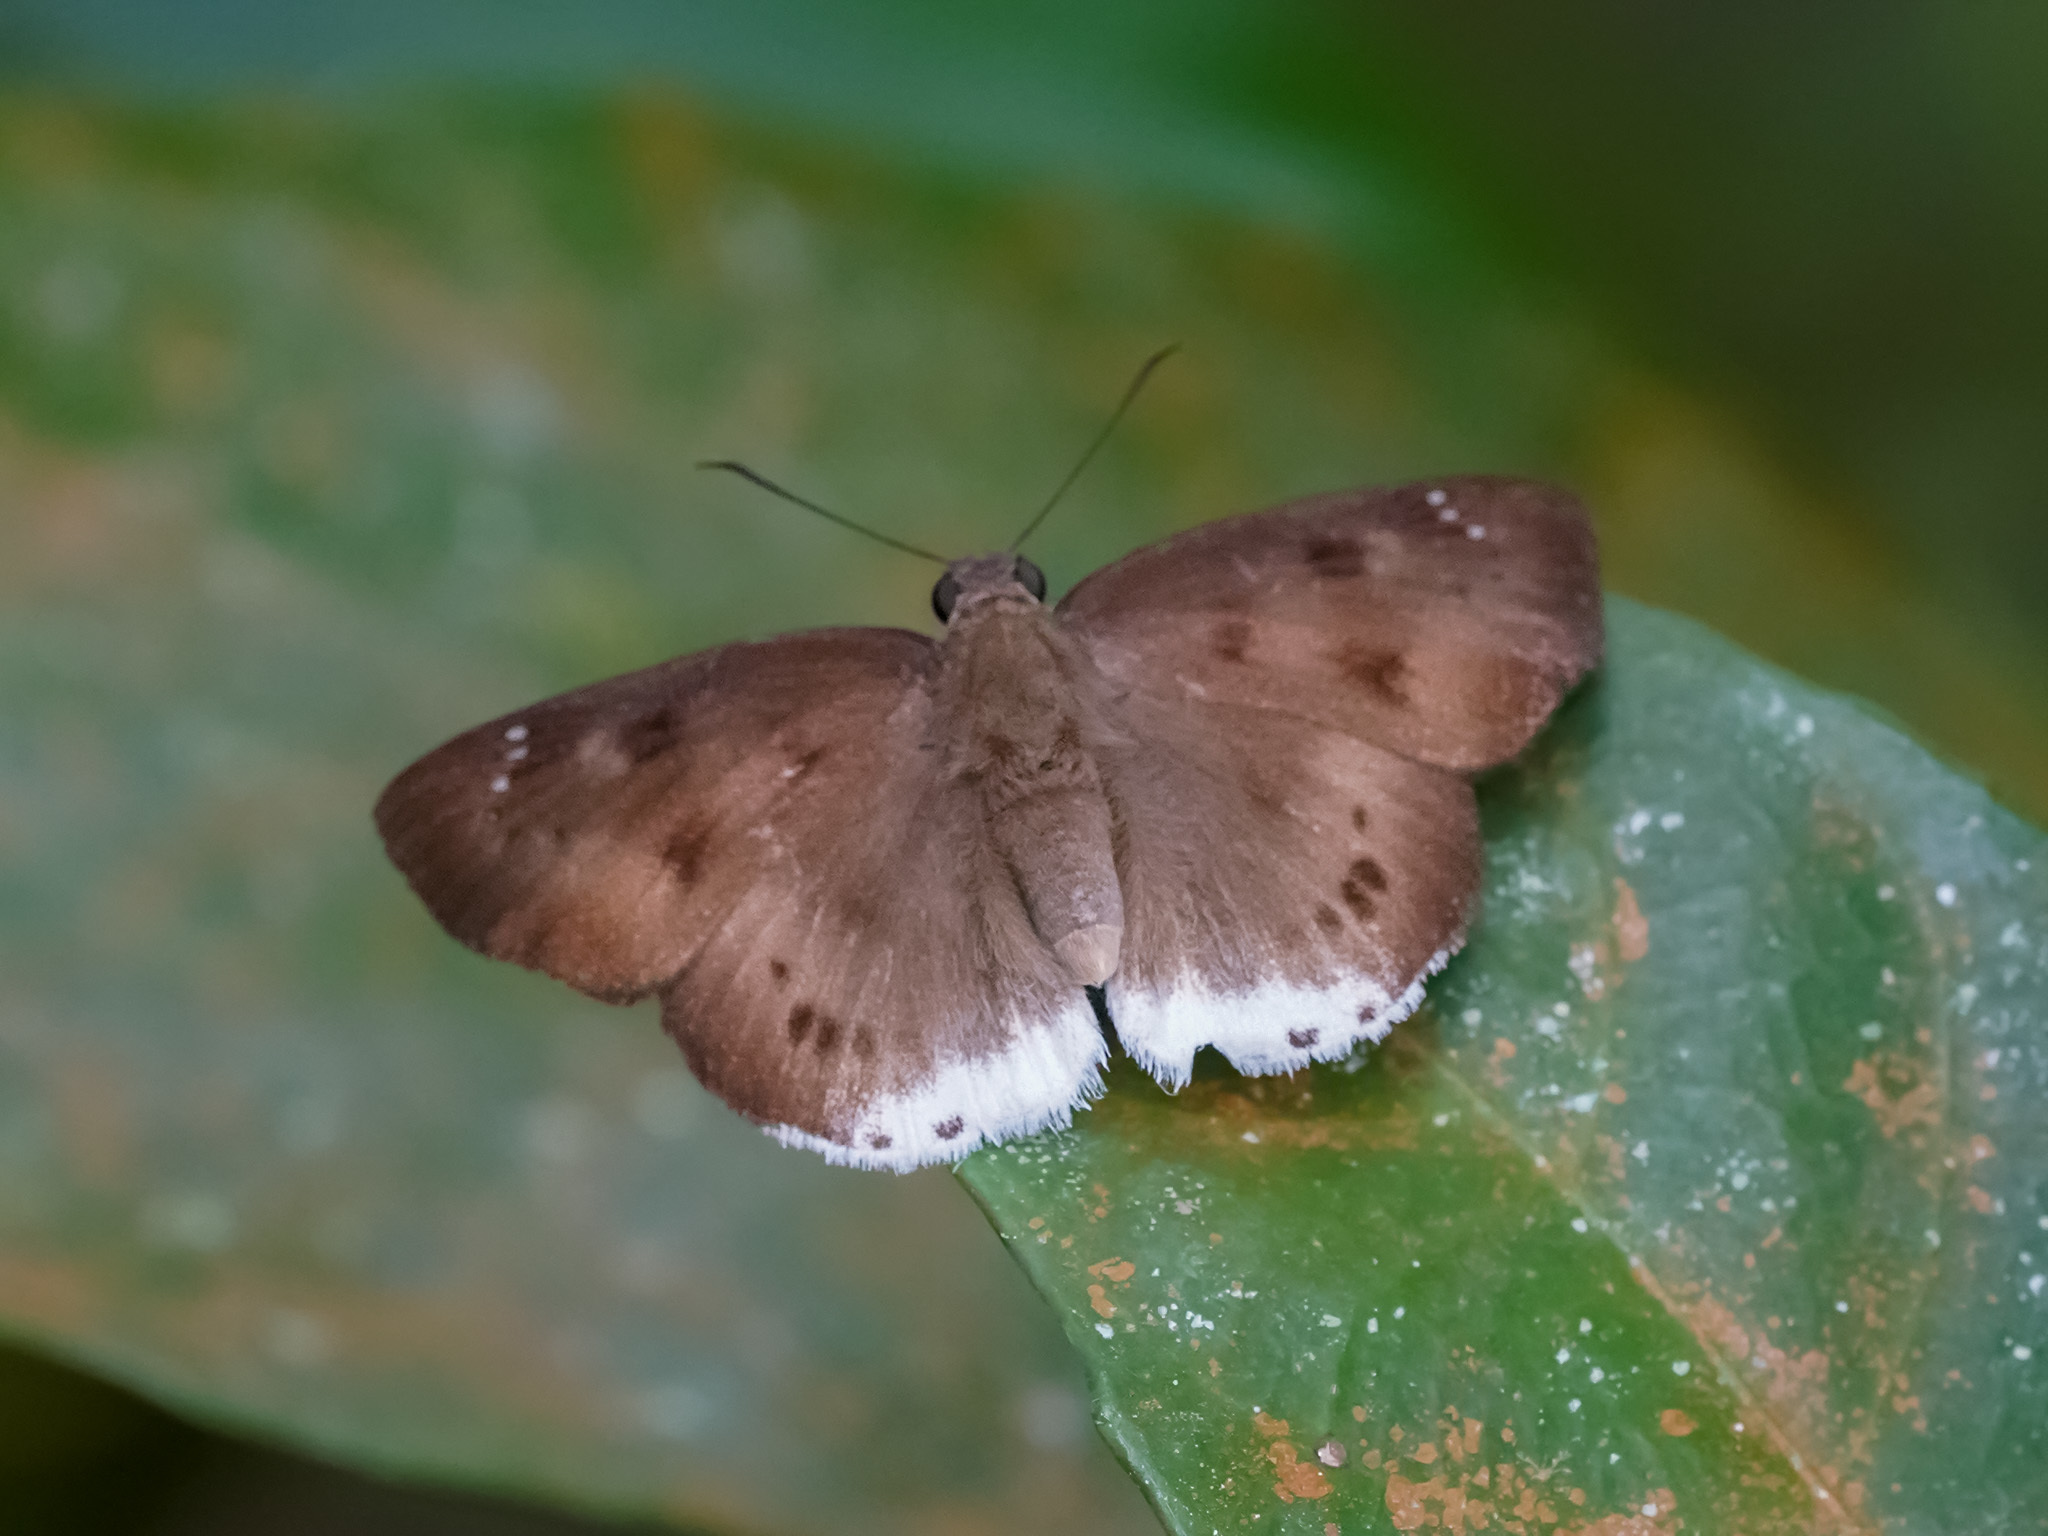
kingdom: Animalia
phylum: Arthropoda
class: Insecta
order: Lepidoptera
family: Hesperiidae
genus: Tagiades
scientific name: Tagiades gana
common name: Suffused snow flat
